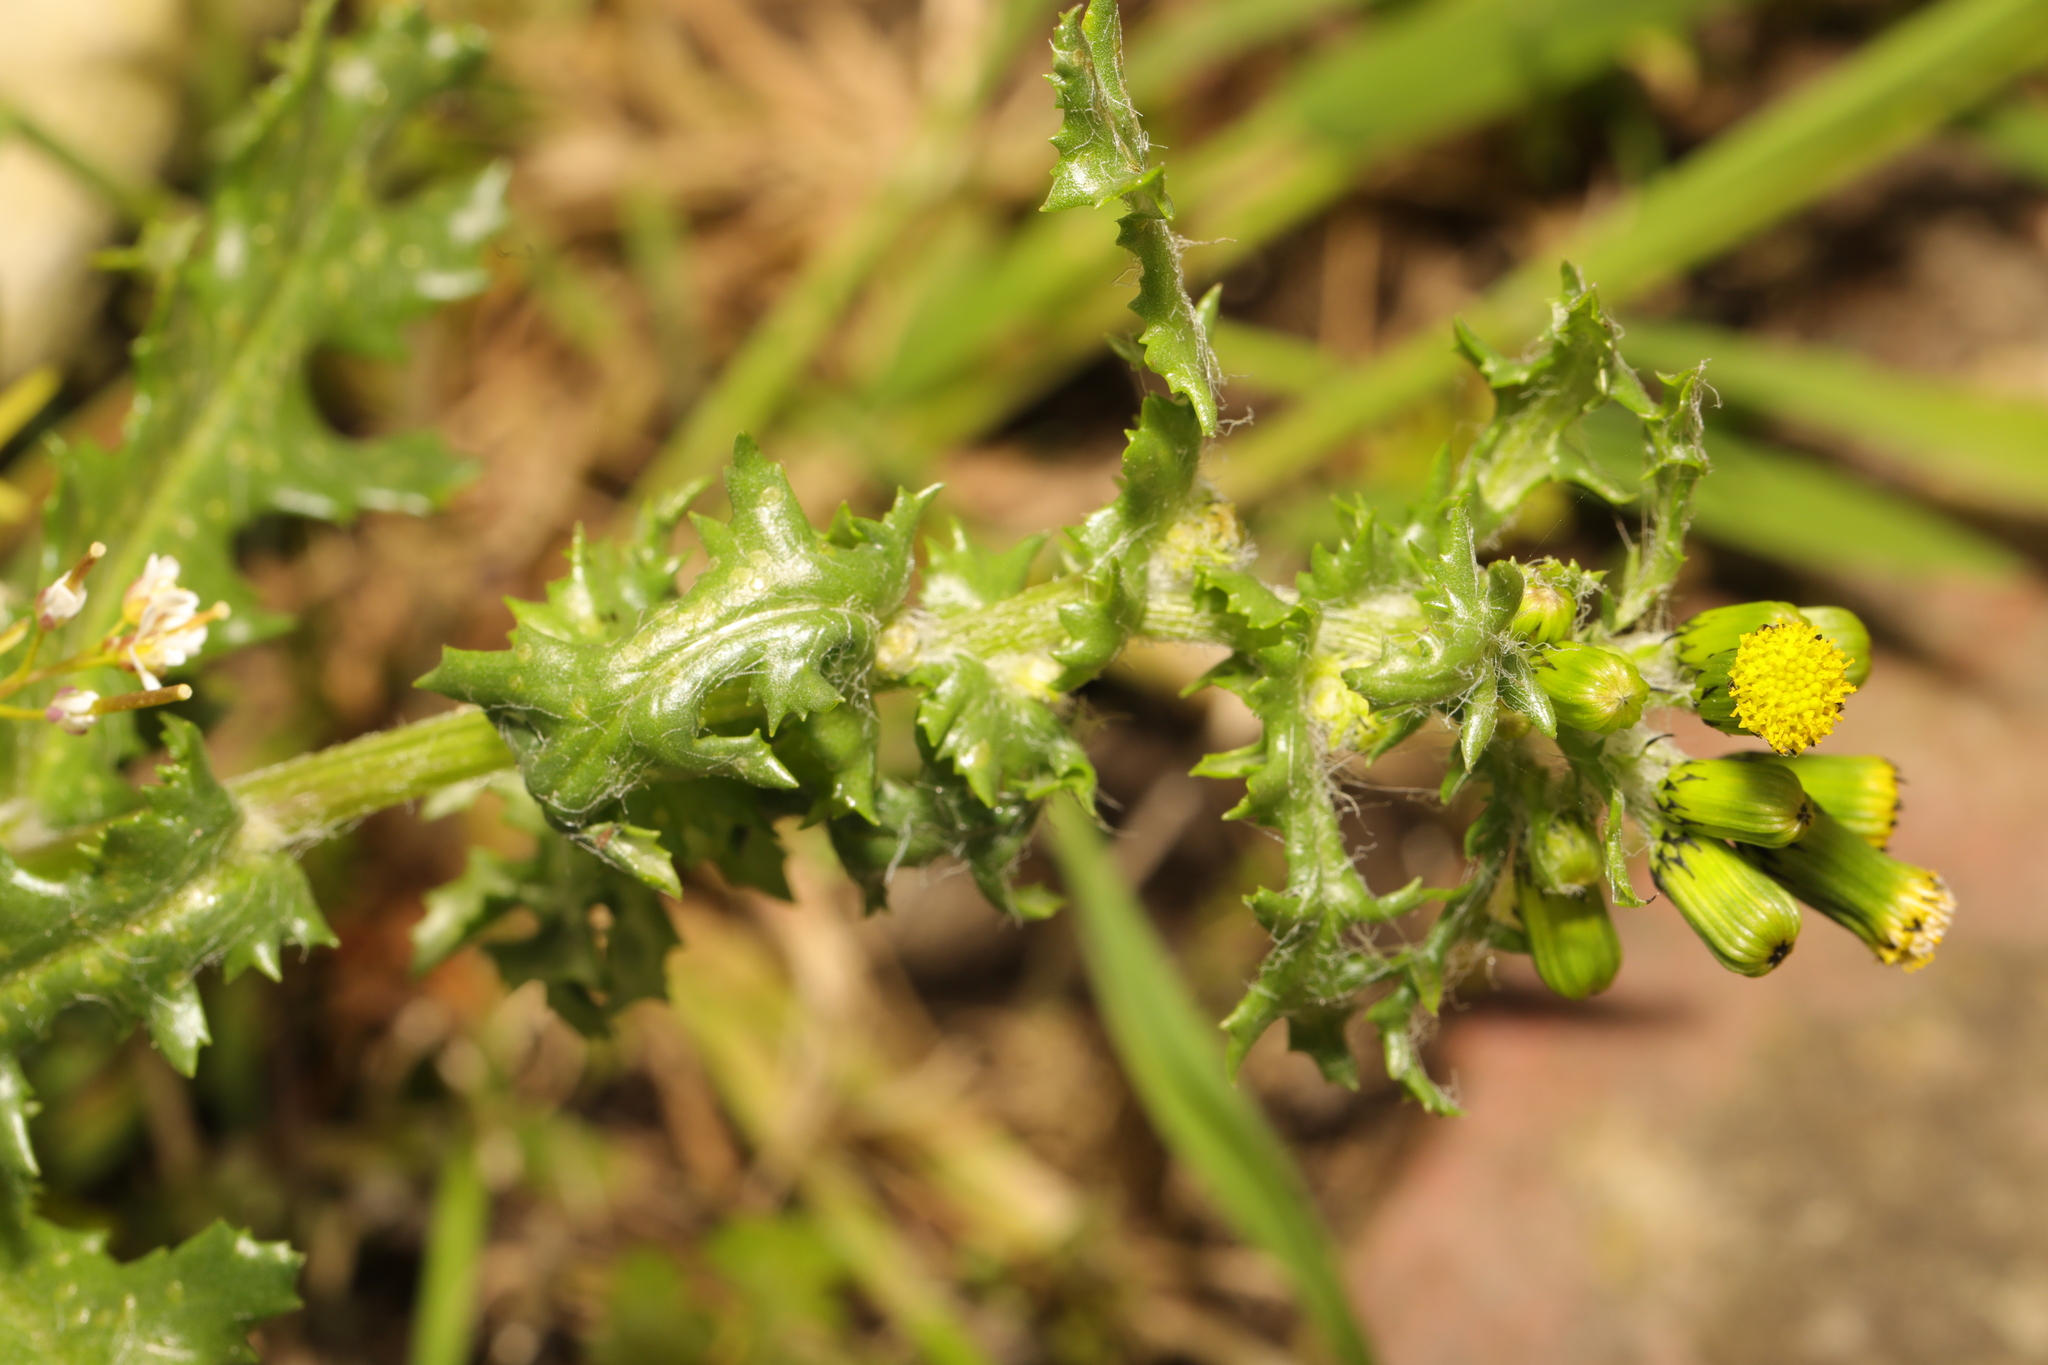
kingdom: Plantae
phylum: Tracheophyta
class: Magnoliopsida
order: Asterales
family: Asteraceae
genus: Senecio
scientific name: Senecio vulgaris
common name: Old-man-in-the-spring
